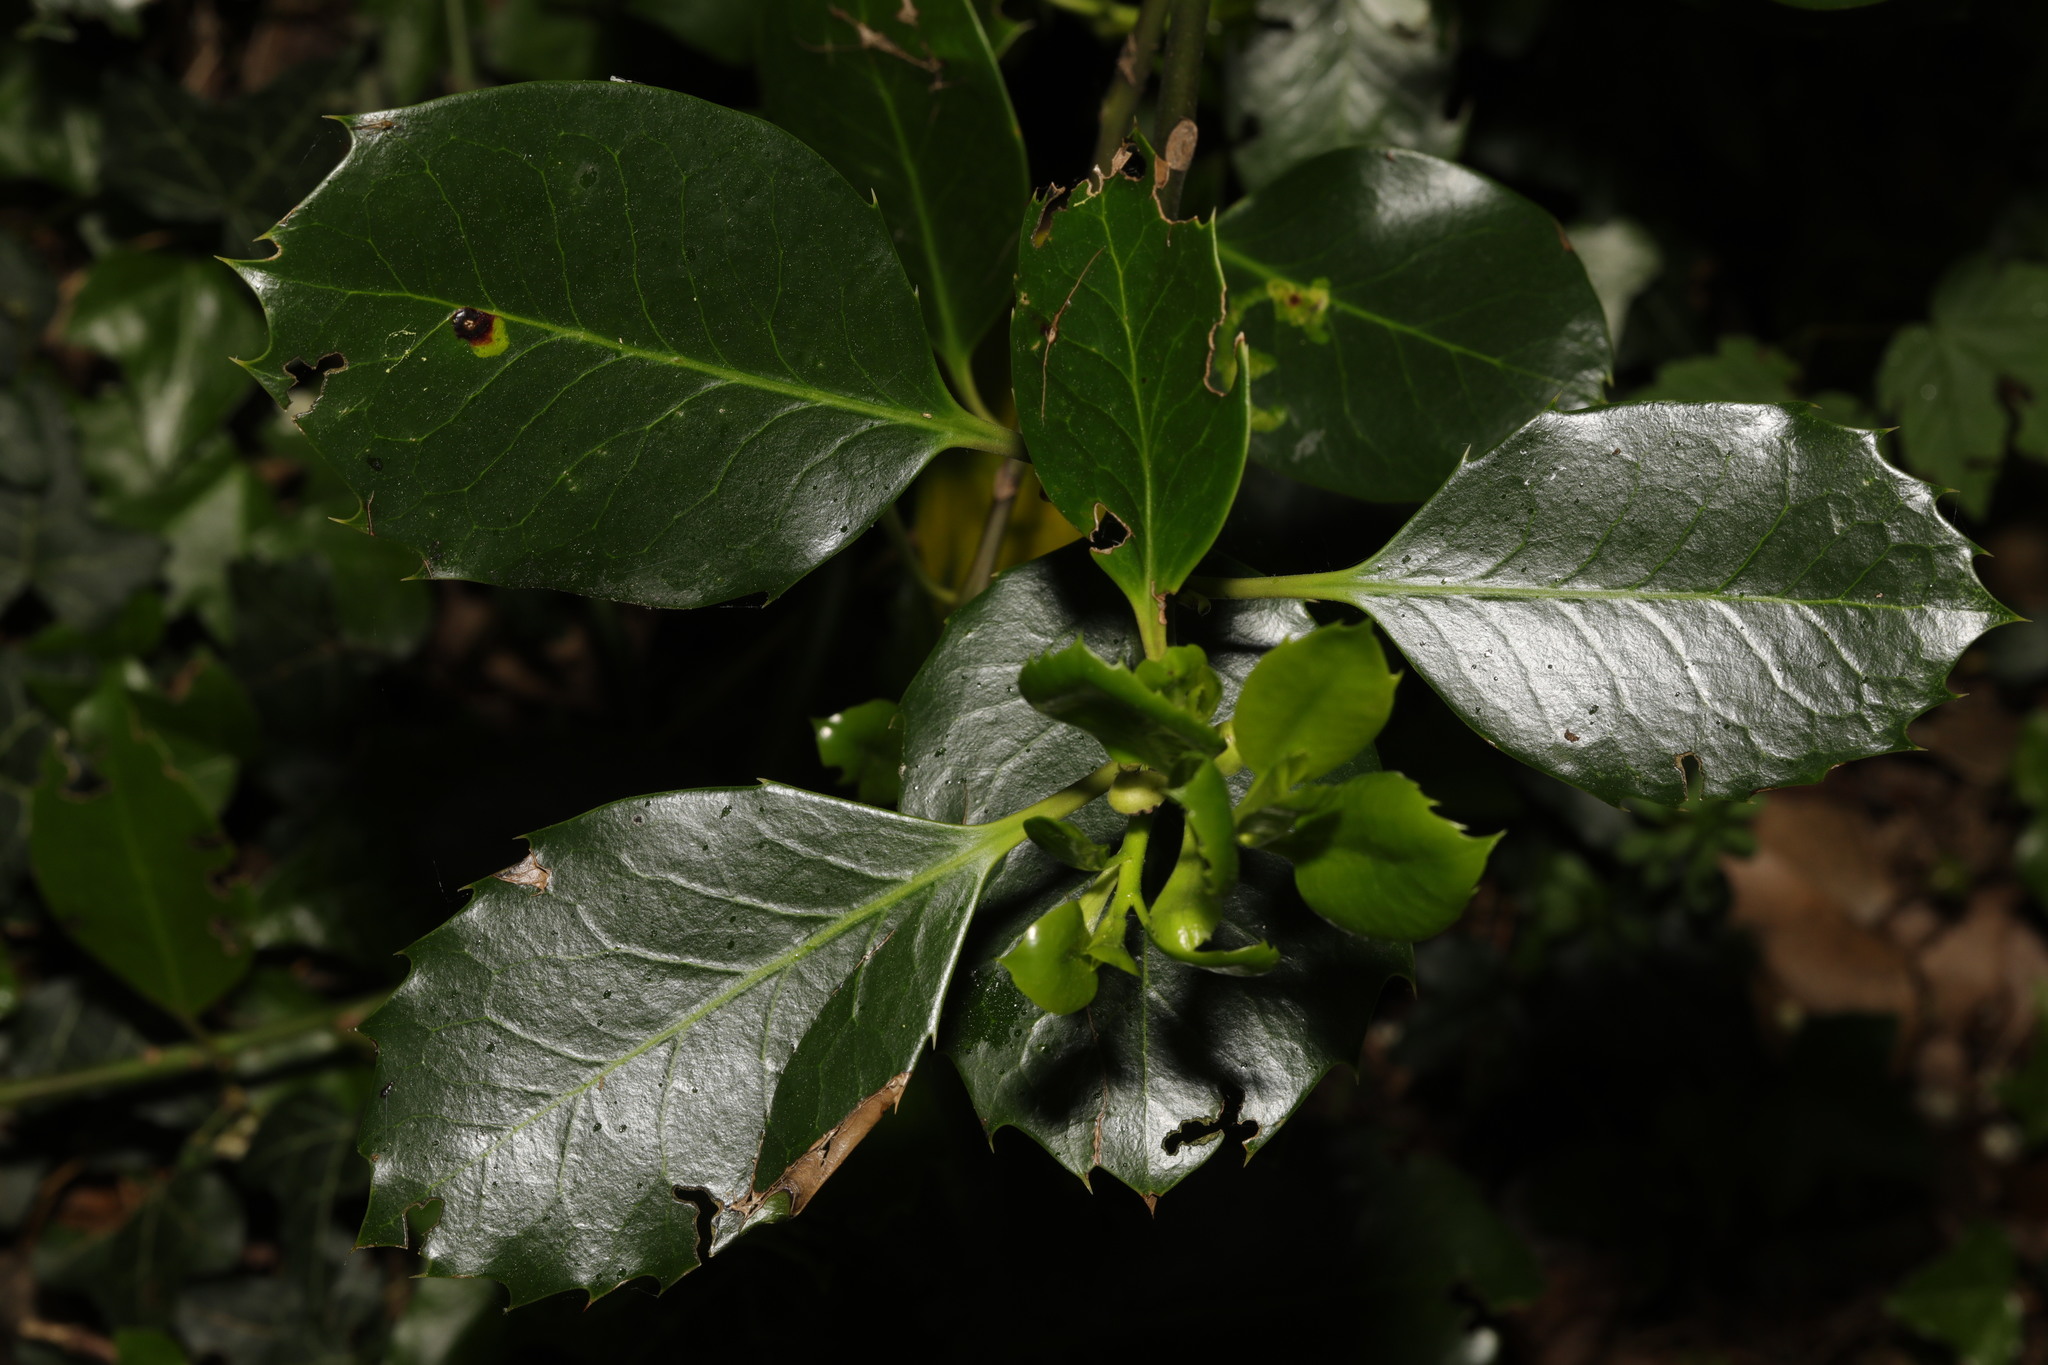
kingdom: Plantae
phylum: Tracheophyta
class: Magnoliopsida
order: Aquifoliales
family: Aquifoliaceae
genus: Ilex
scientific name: Ilex aquifolium
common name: English holly
